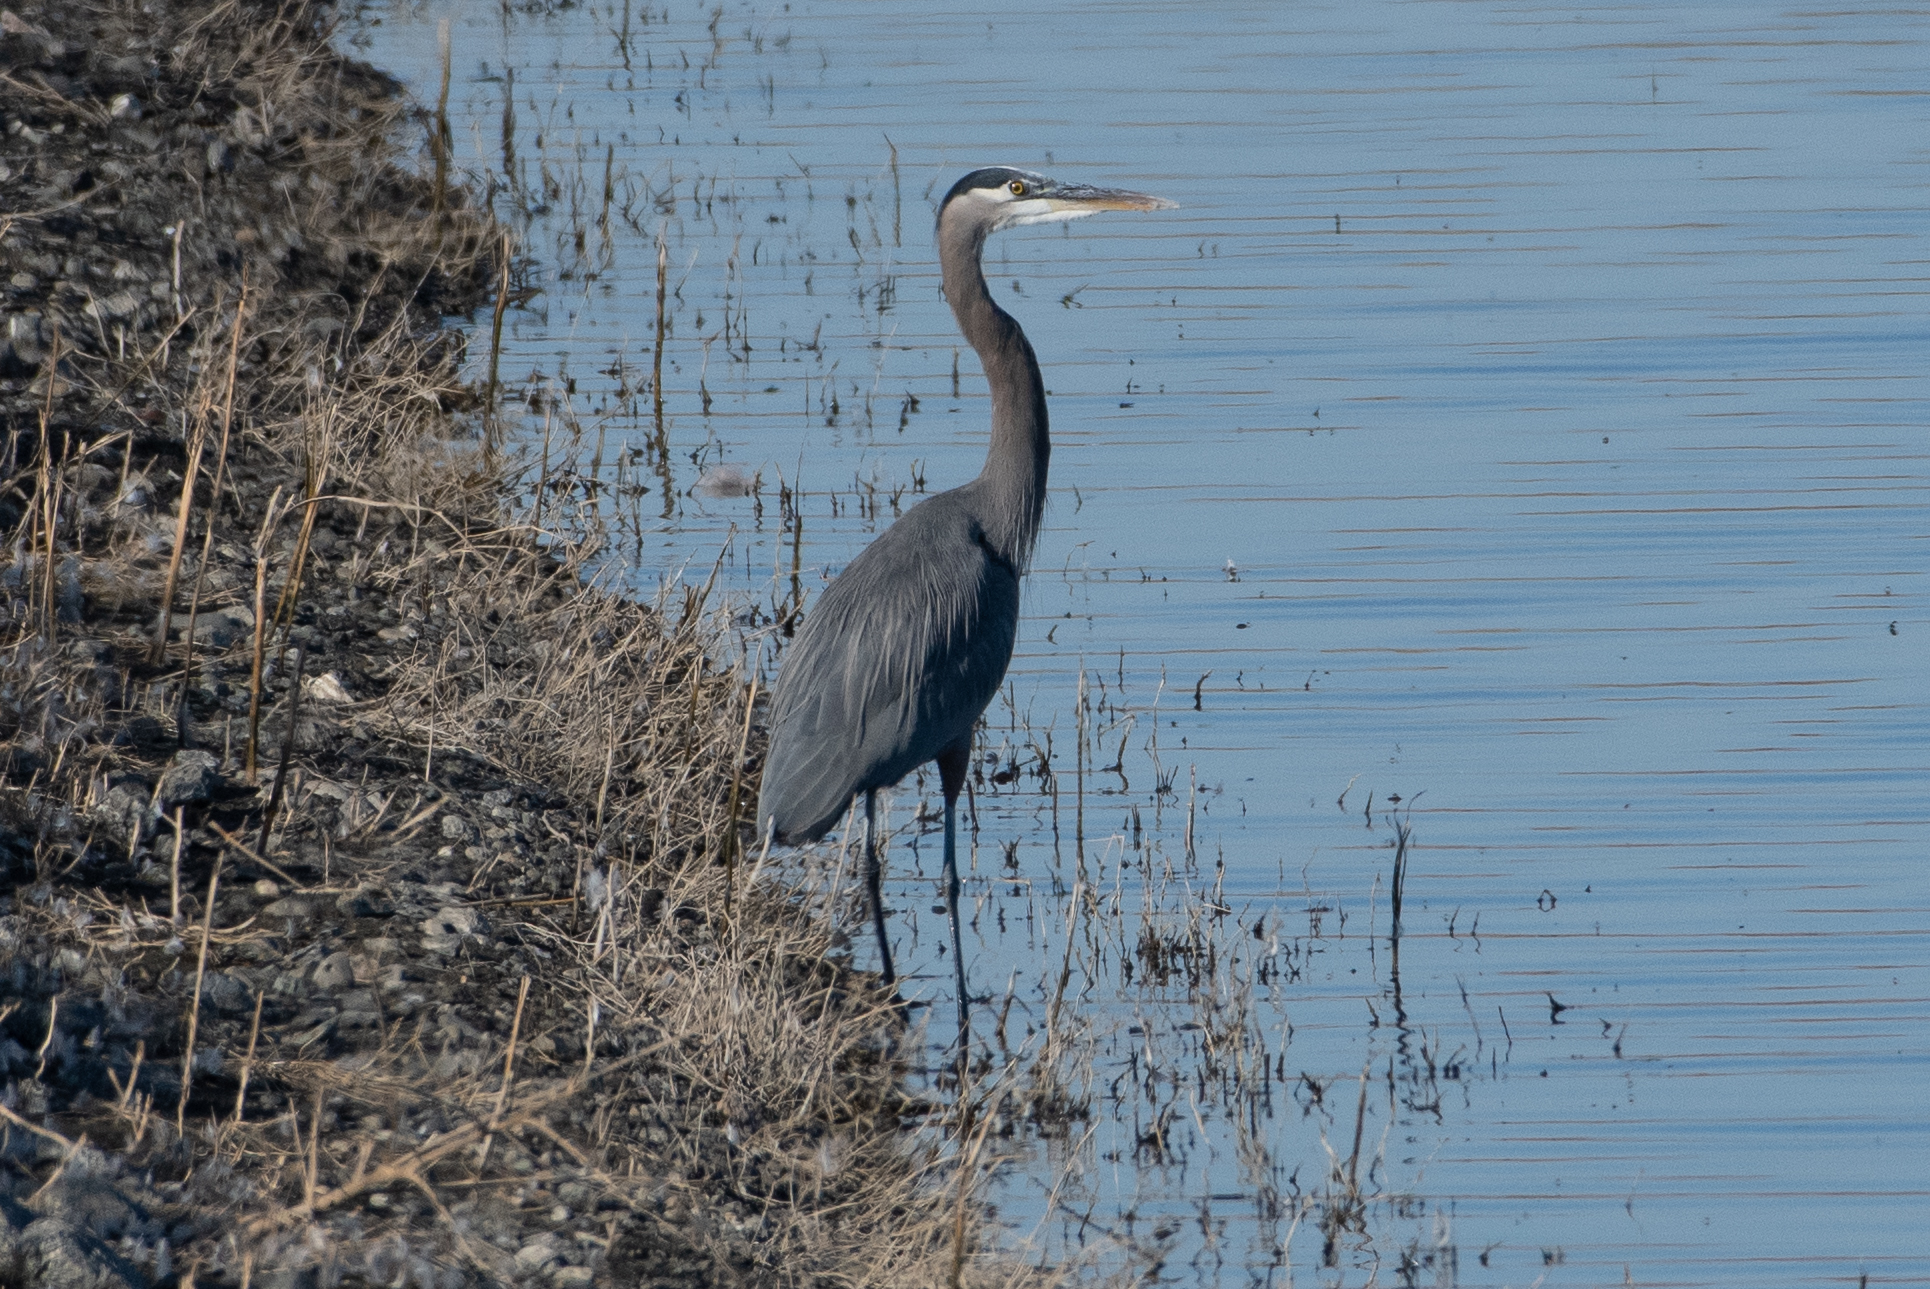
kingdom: Animalia
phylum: Chordata
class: Aves
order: Pelecaniformes
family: Ardeidae
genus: Ardea
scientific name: Ardea herodias
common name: Great blue heron
